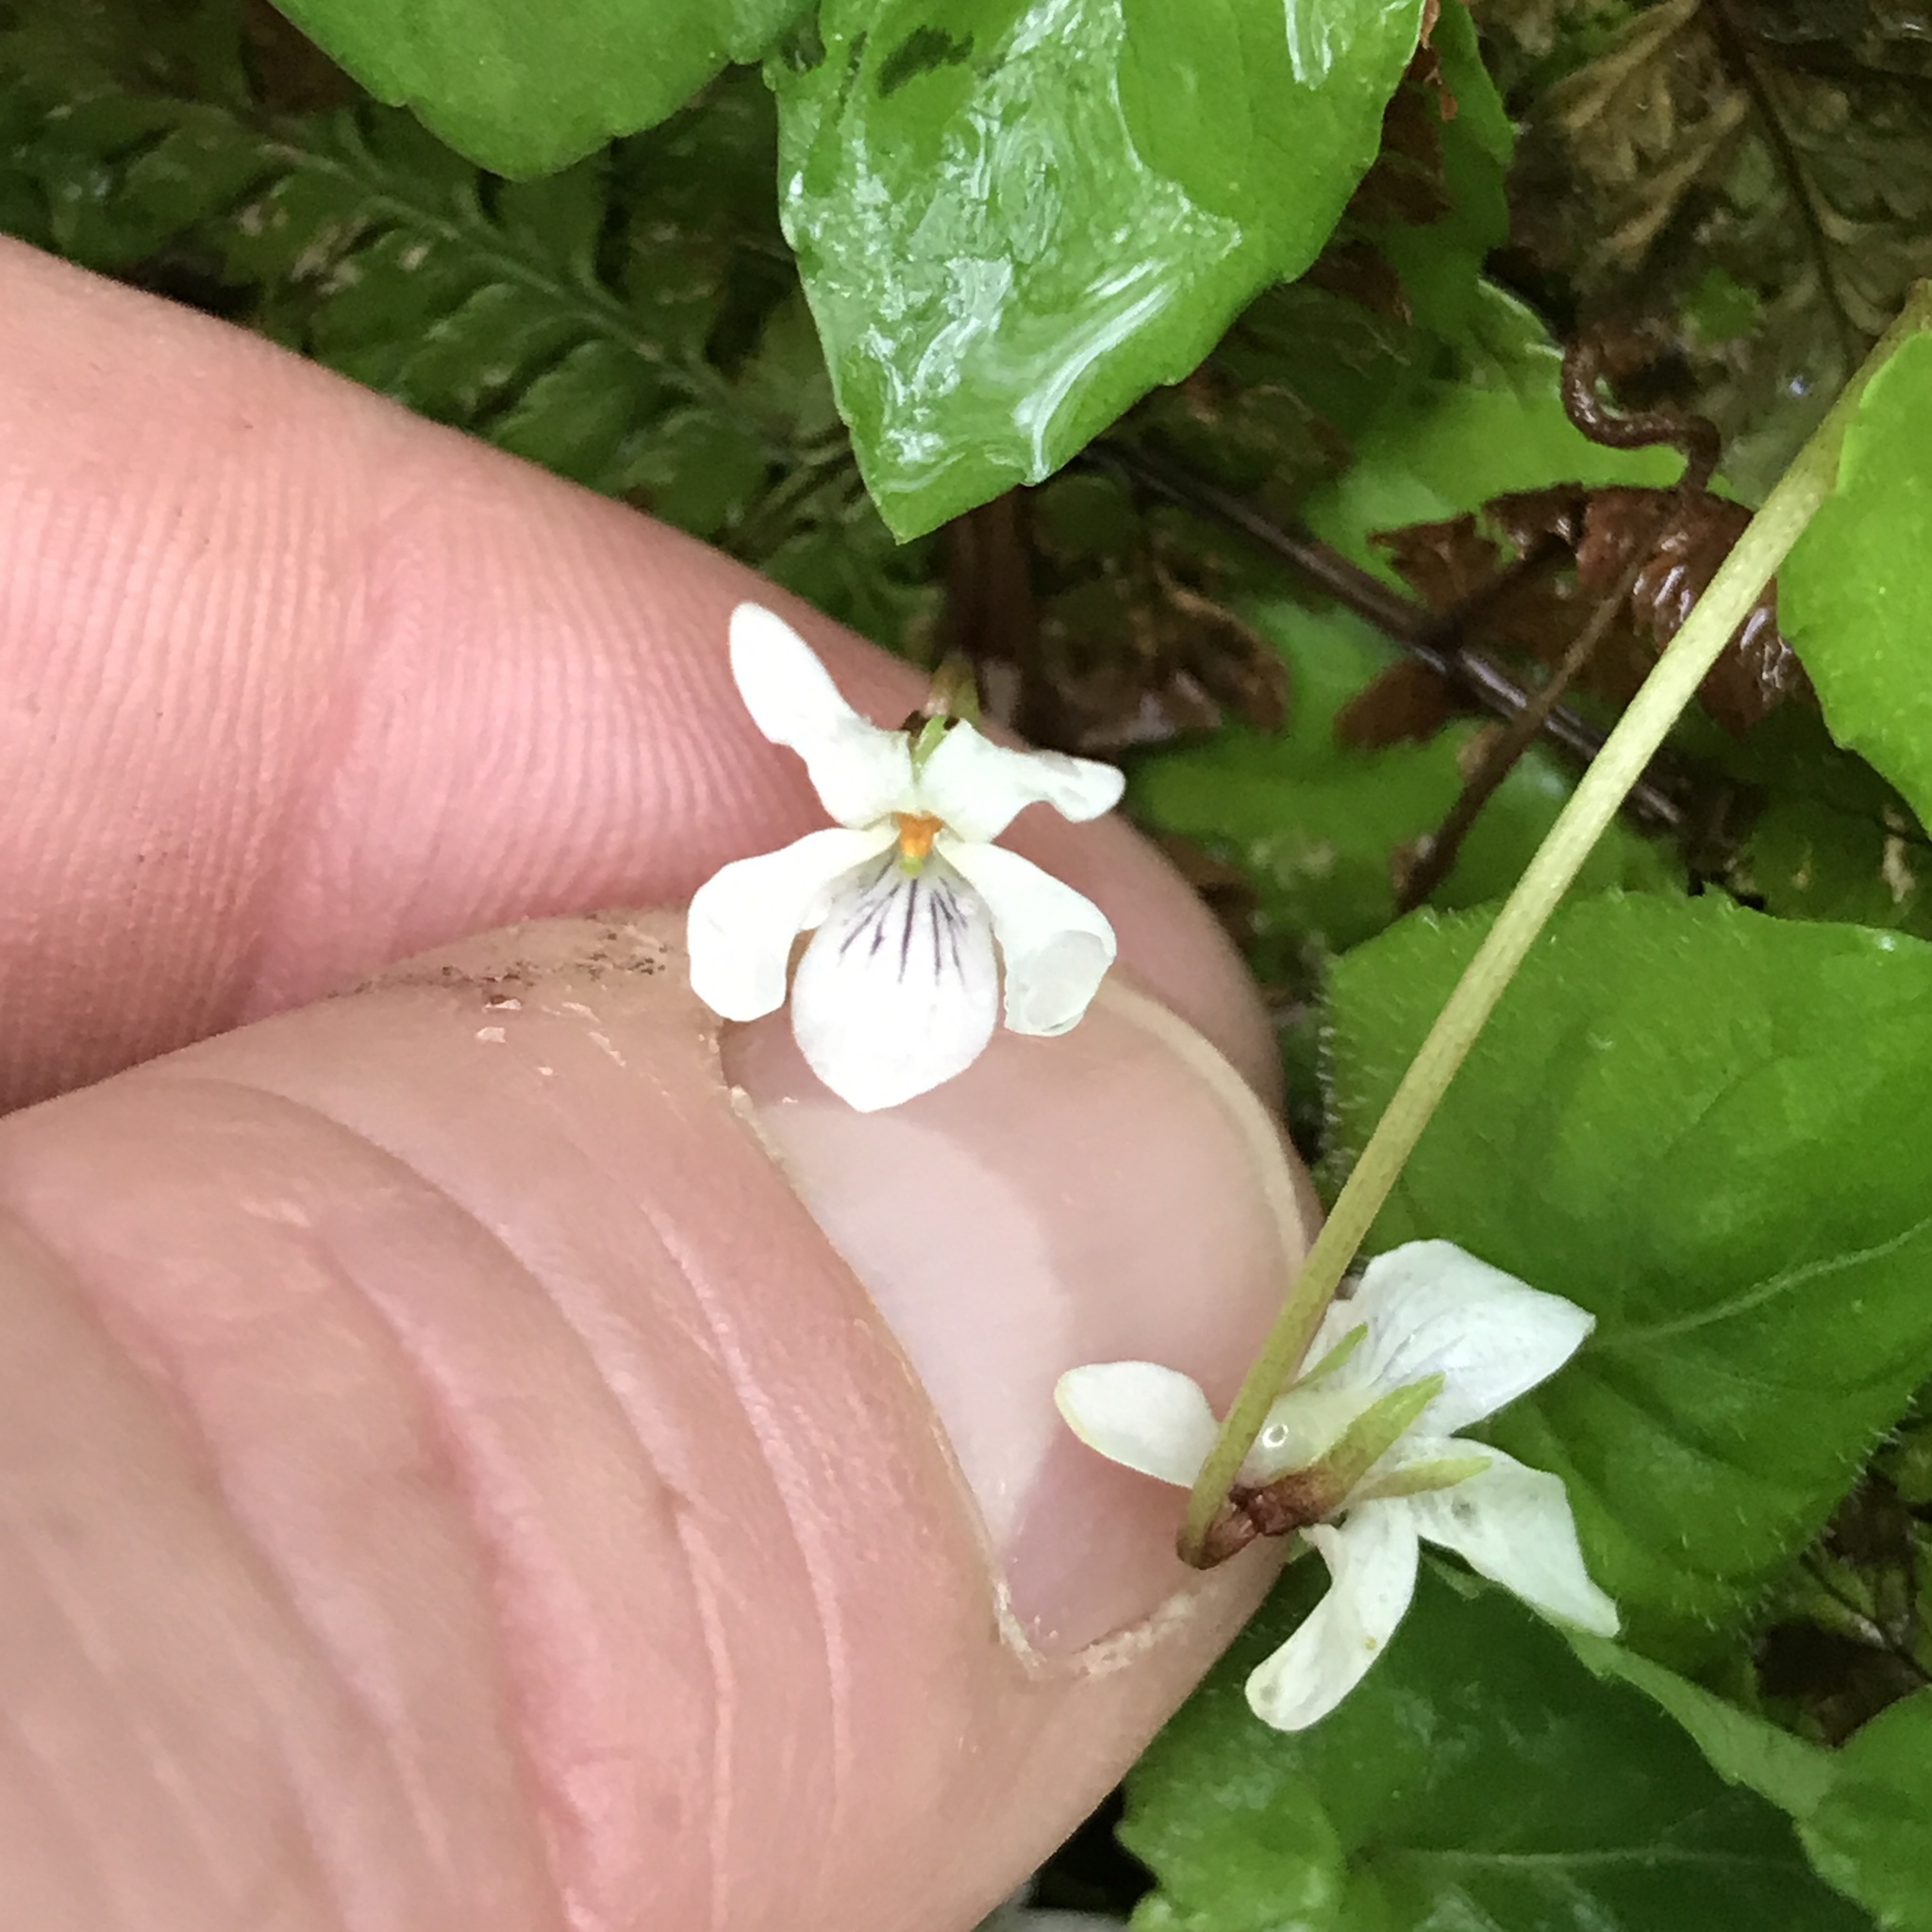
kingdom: Plantae
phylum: Tracheophyta
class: Magnoliopsida
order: Malpighiales
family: Violaceae
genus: Viola
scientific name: Viola blanda
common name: Sweet white violet
